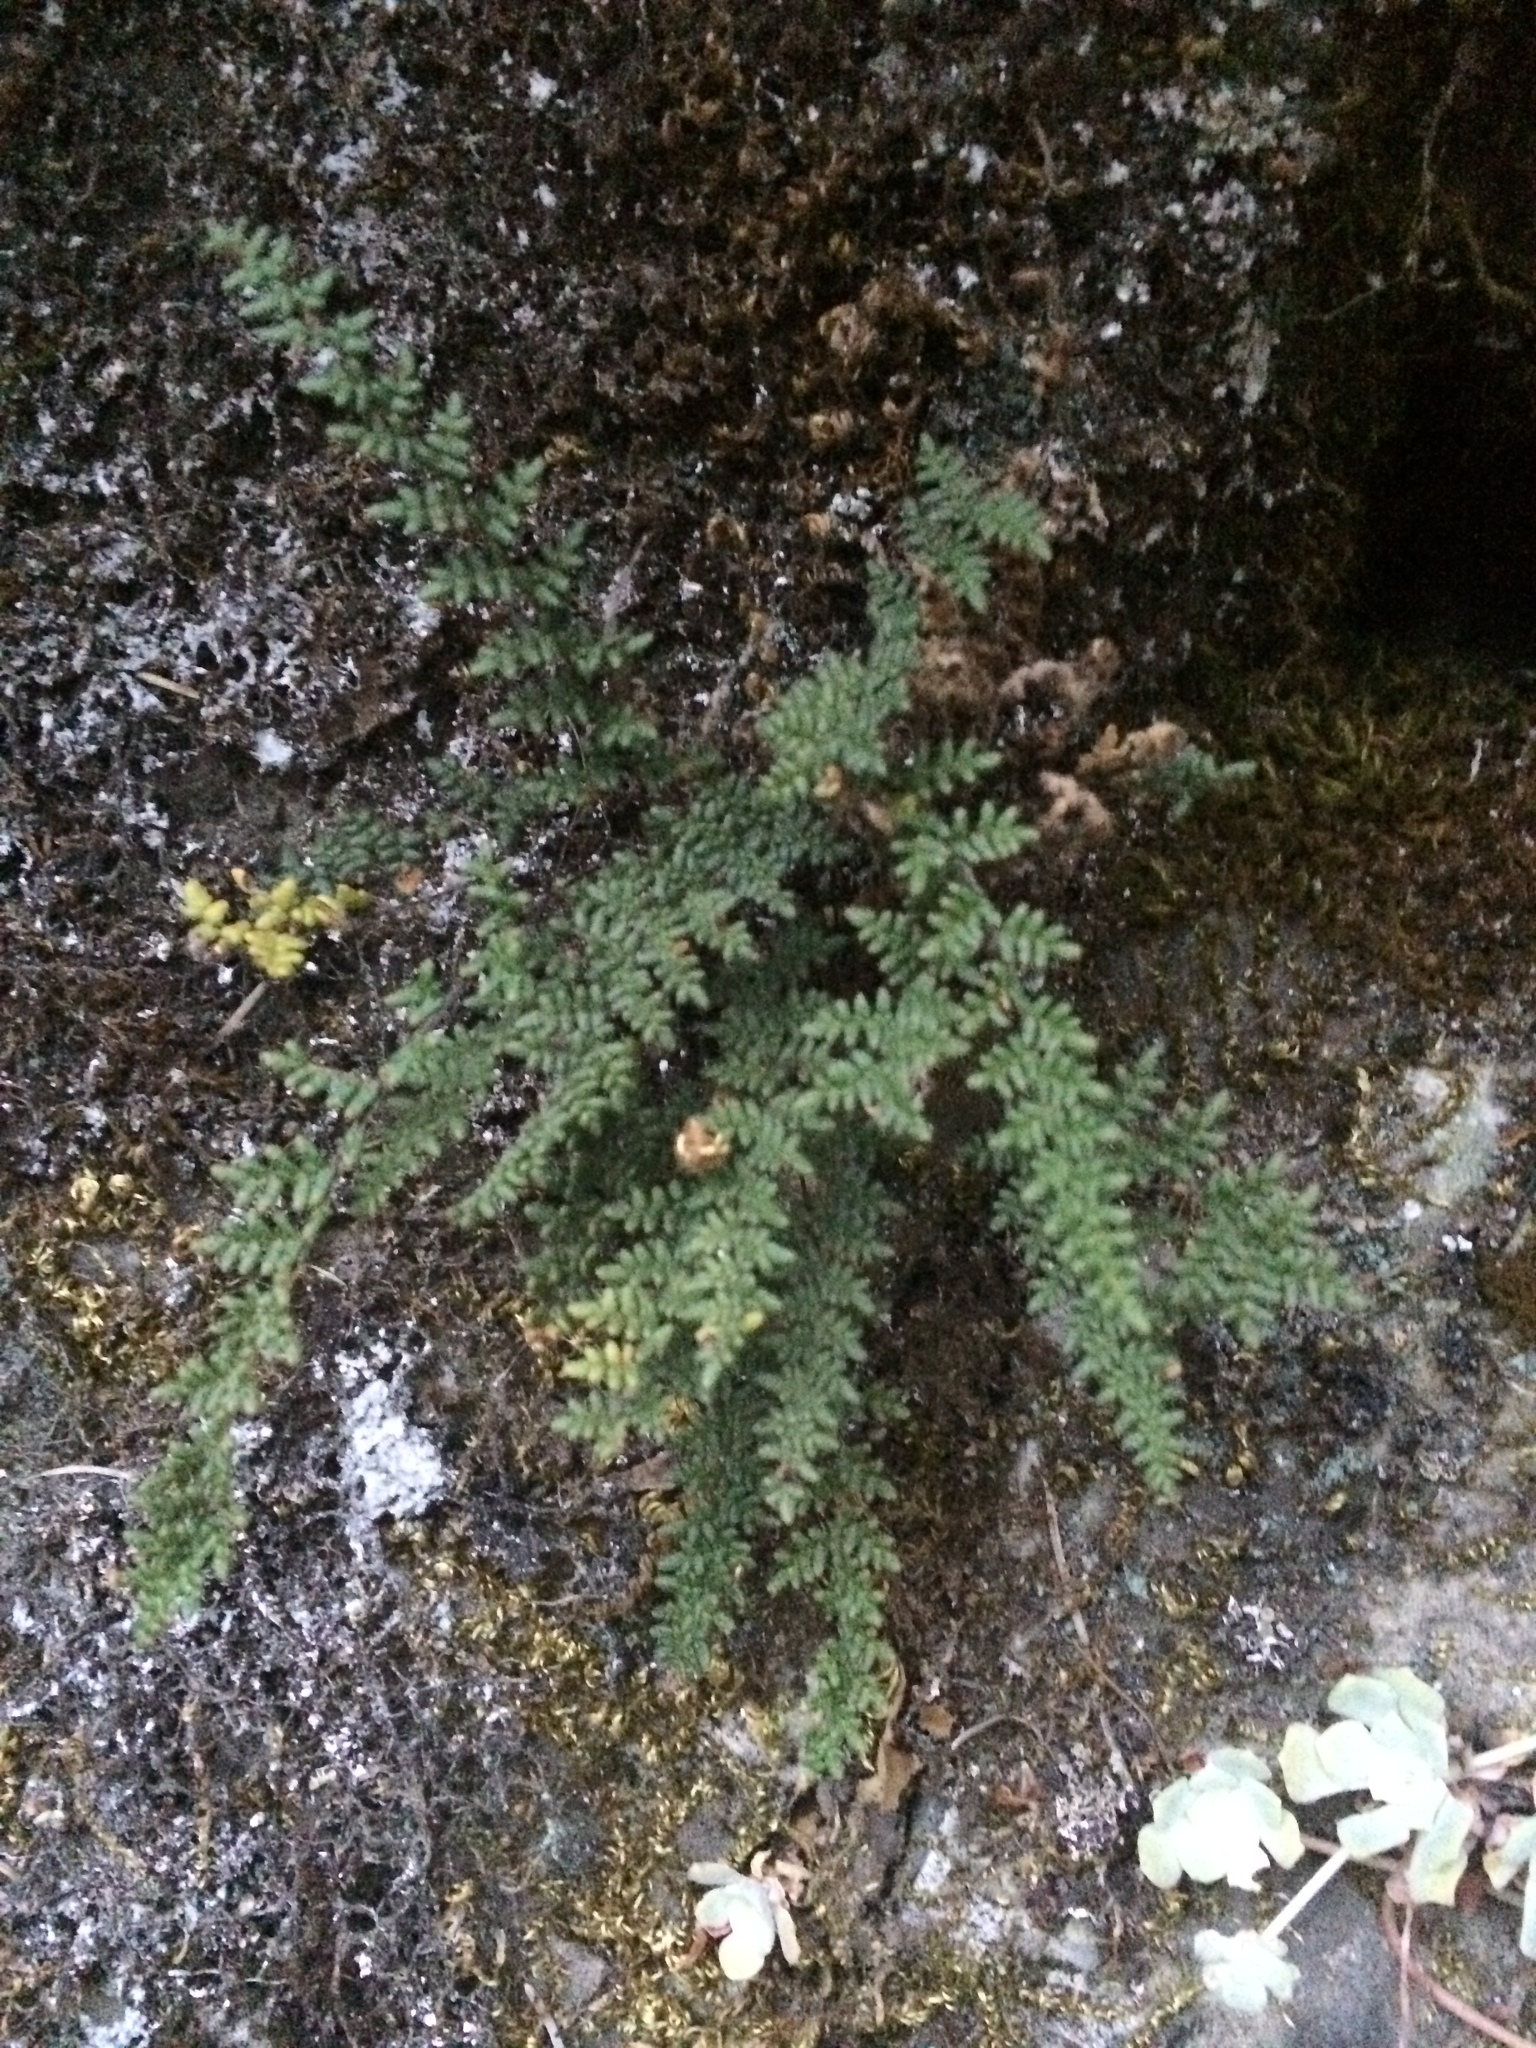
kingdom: Plantae
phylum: Tracheophyta
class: Polypodiopsida
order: Polypodiales
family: Pteridaceae
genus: Myriopteris
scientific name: Myriopteris gracillima
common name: Lace fern
